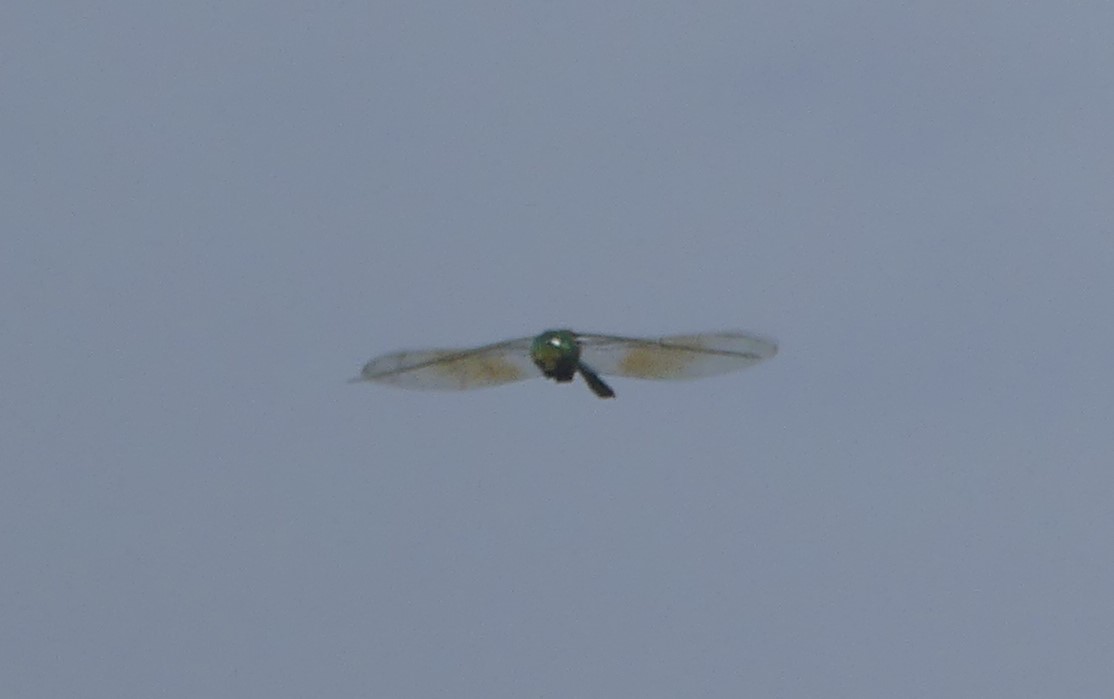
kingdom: Animalia
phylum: Arthropoda
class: Insecta
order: Odonata
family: Aeshnidae
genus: Anax
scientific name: Anax gibbosulus
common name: Green emperor
